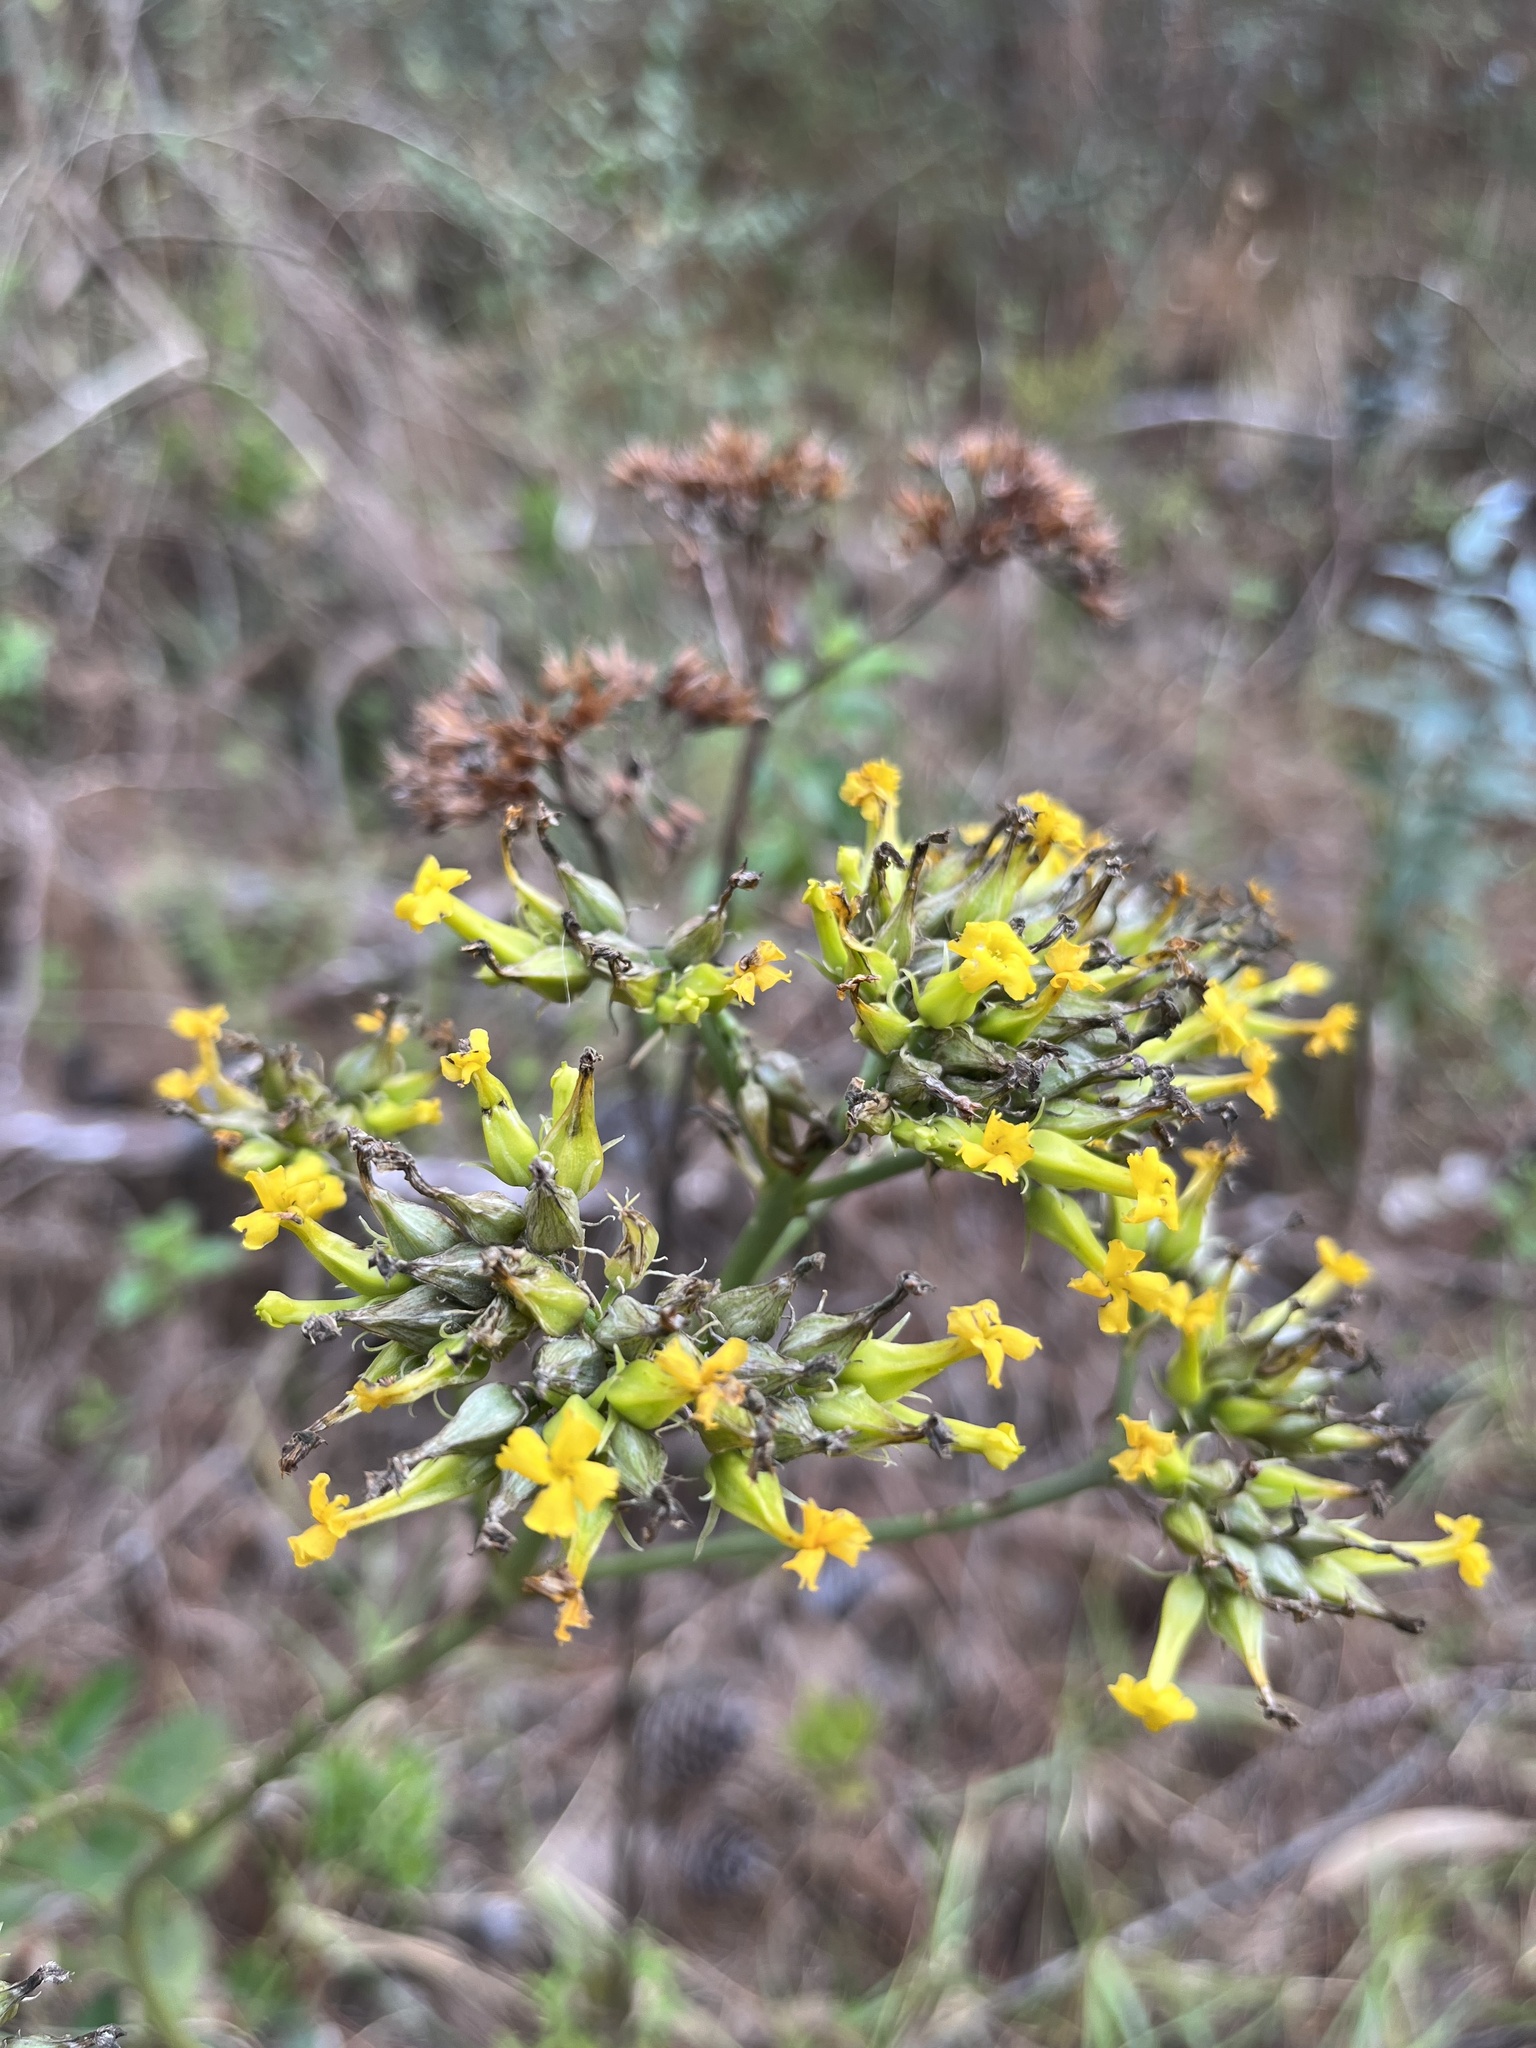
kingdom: Plantae
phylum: Tracheophyta
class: Magnoliopsida
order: Saxifragales
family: Crassulaceae
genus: Kalanchoe
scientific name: Kalanchoe densiflora
